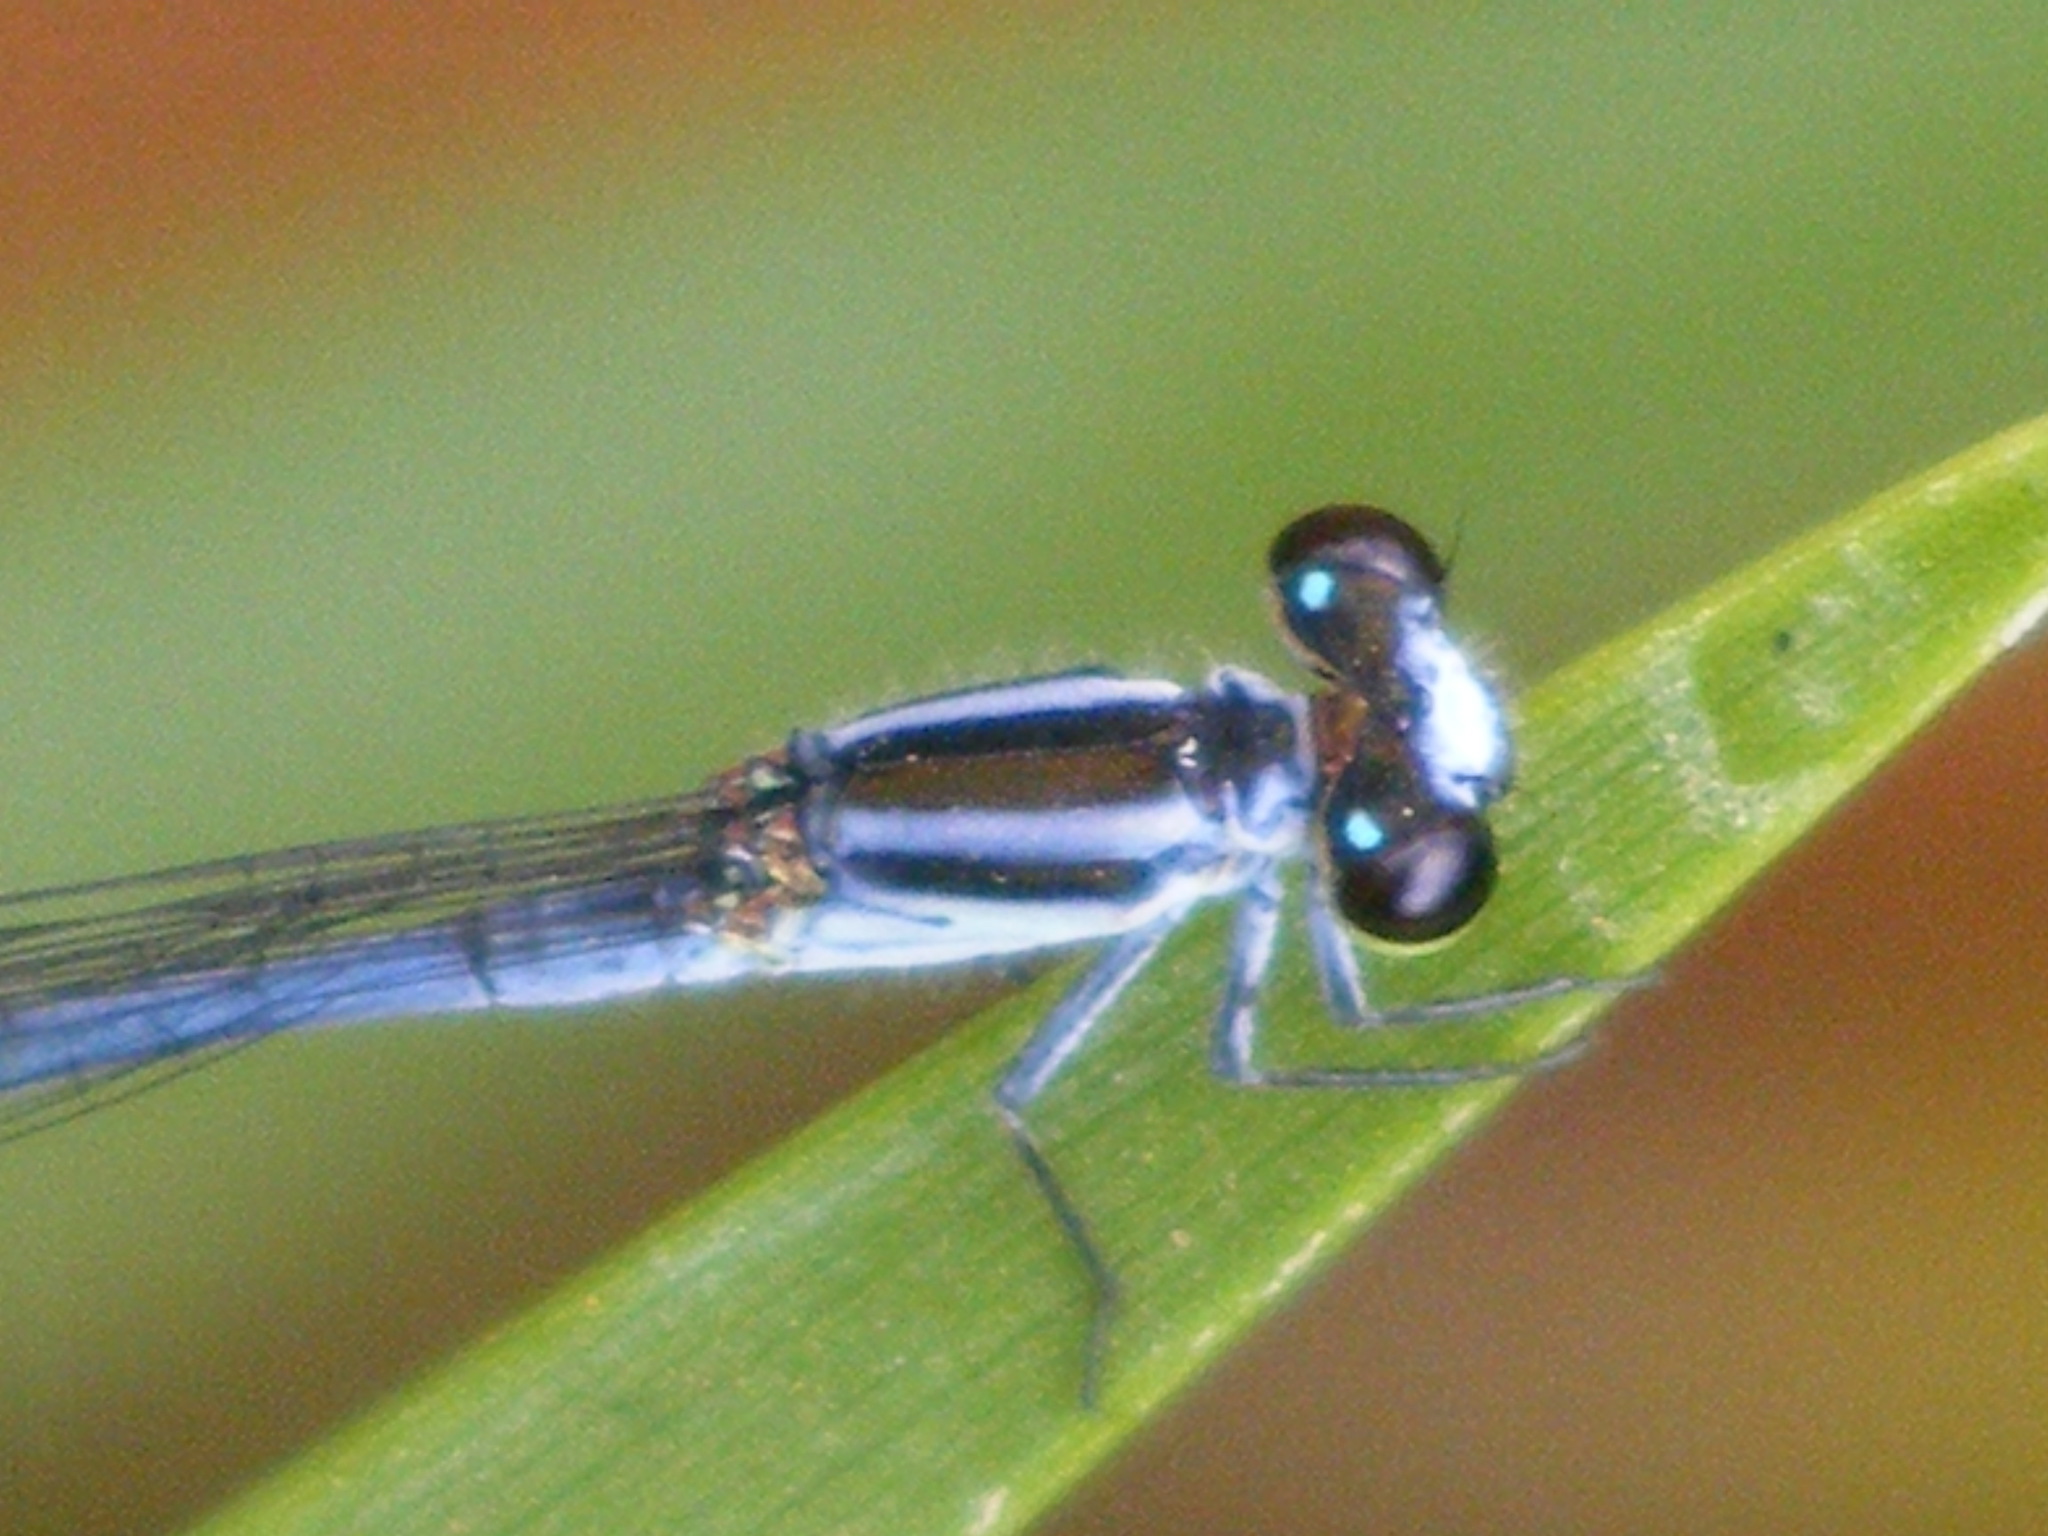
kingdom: Animalia
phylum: Arthropoda
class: Insecta
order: Odonata
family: Coenagrionidae
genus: Pseudagrion
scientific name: Pseudagrion kersteni
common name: Powder-faced sprite
